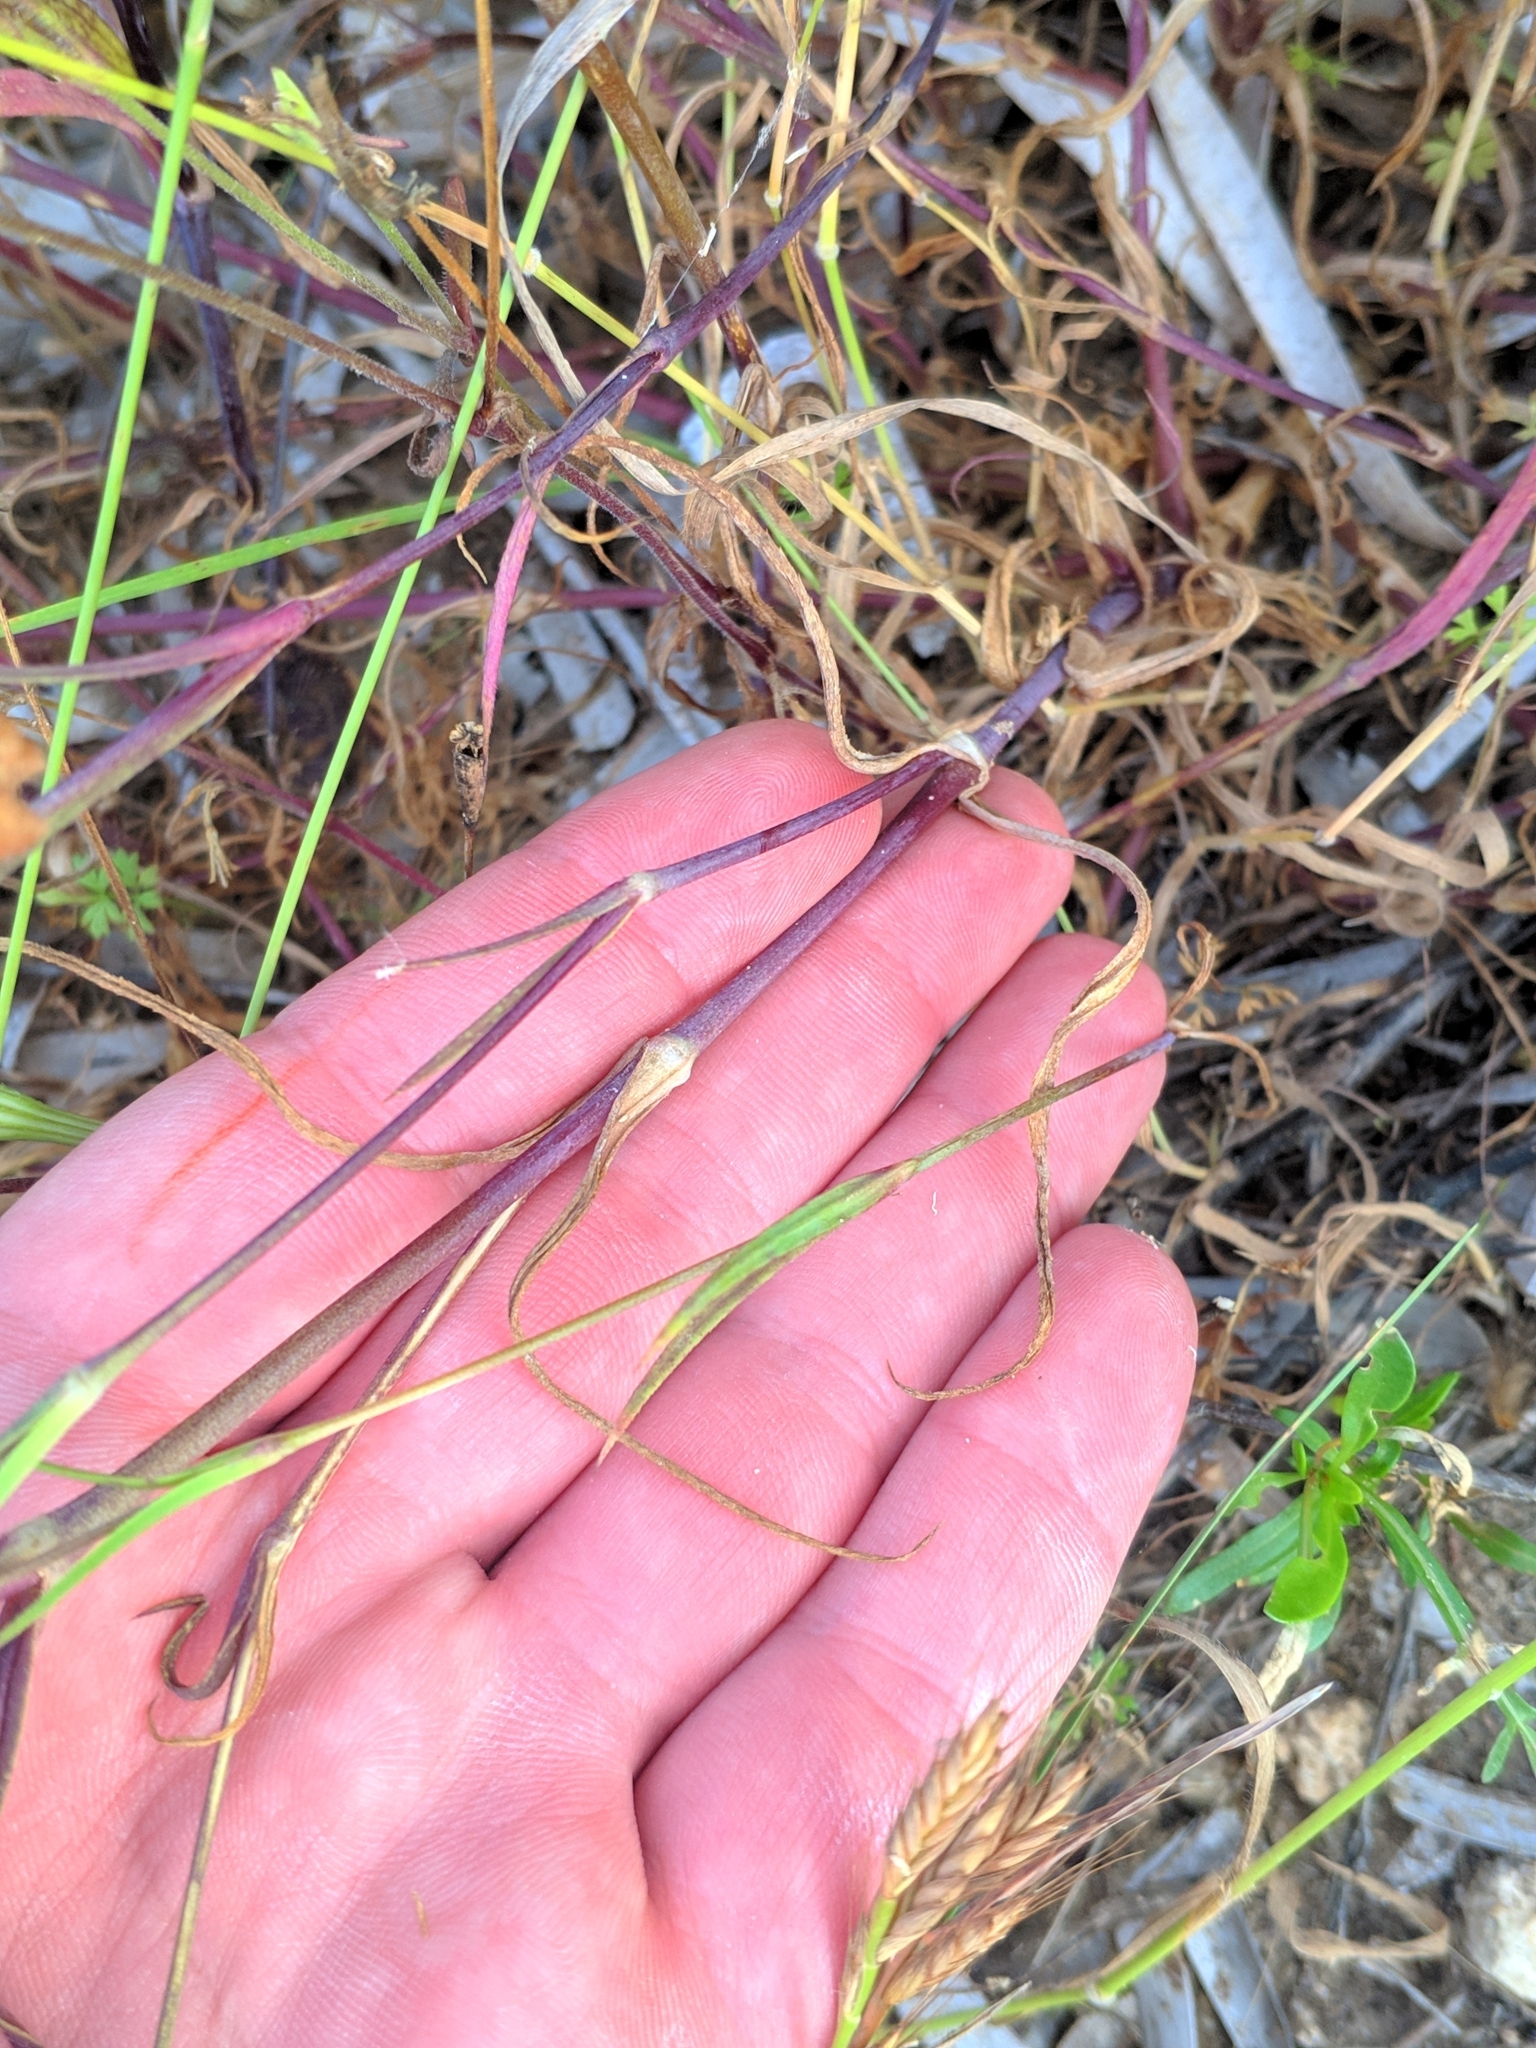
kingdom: Plantae
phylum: Tracheophyta
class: Magnoliopsida
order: Caryophyllales
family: Caryophyllaceae
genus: Eudianthe
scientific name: Eudianthe coeli-rosa
